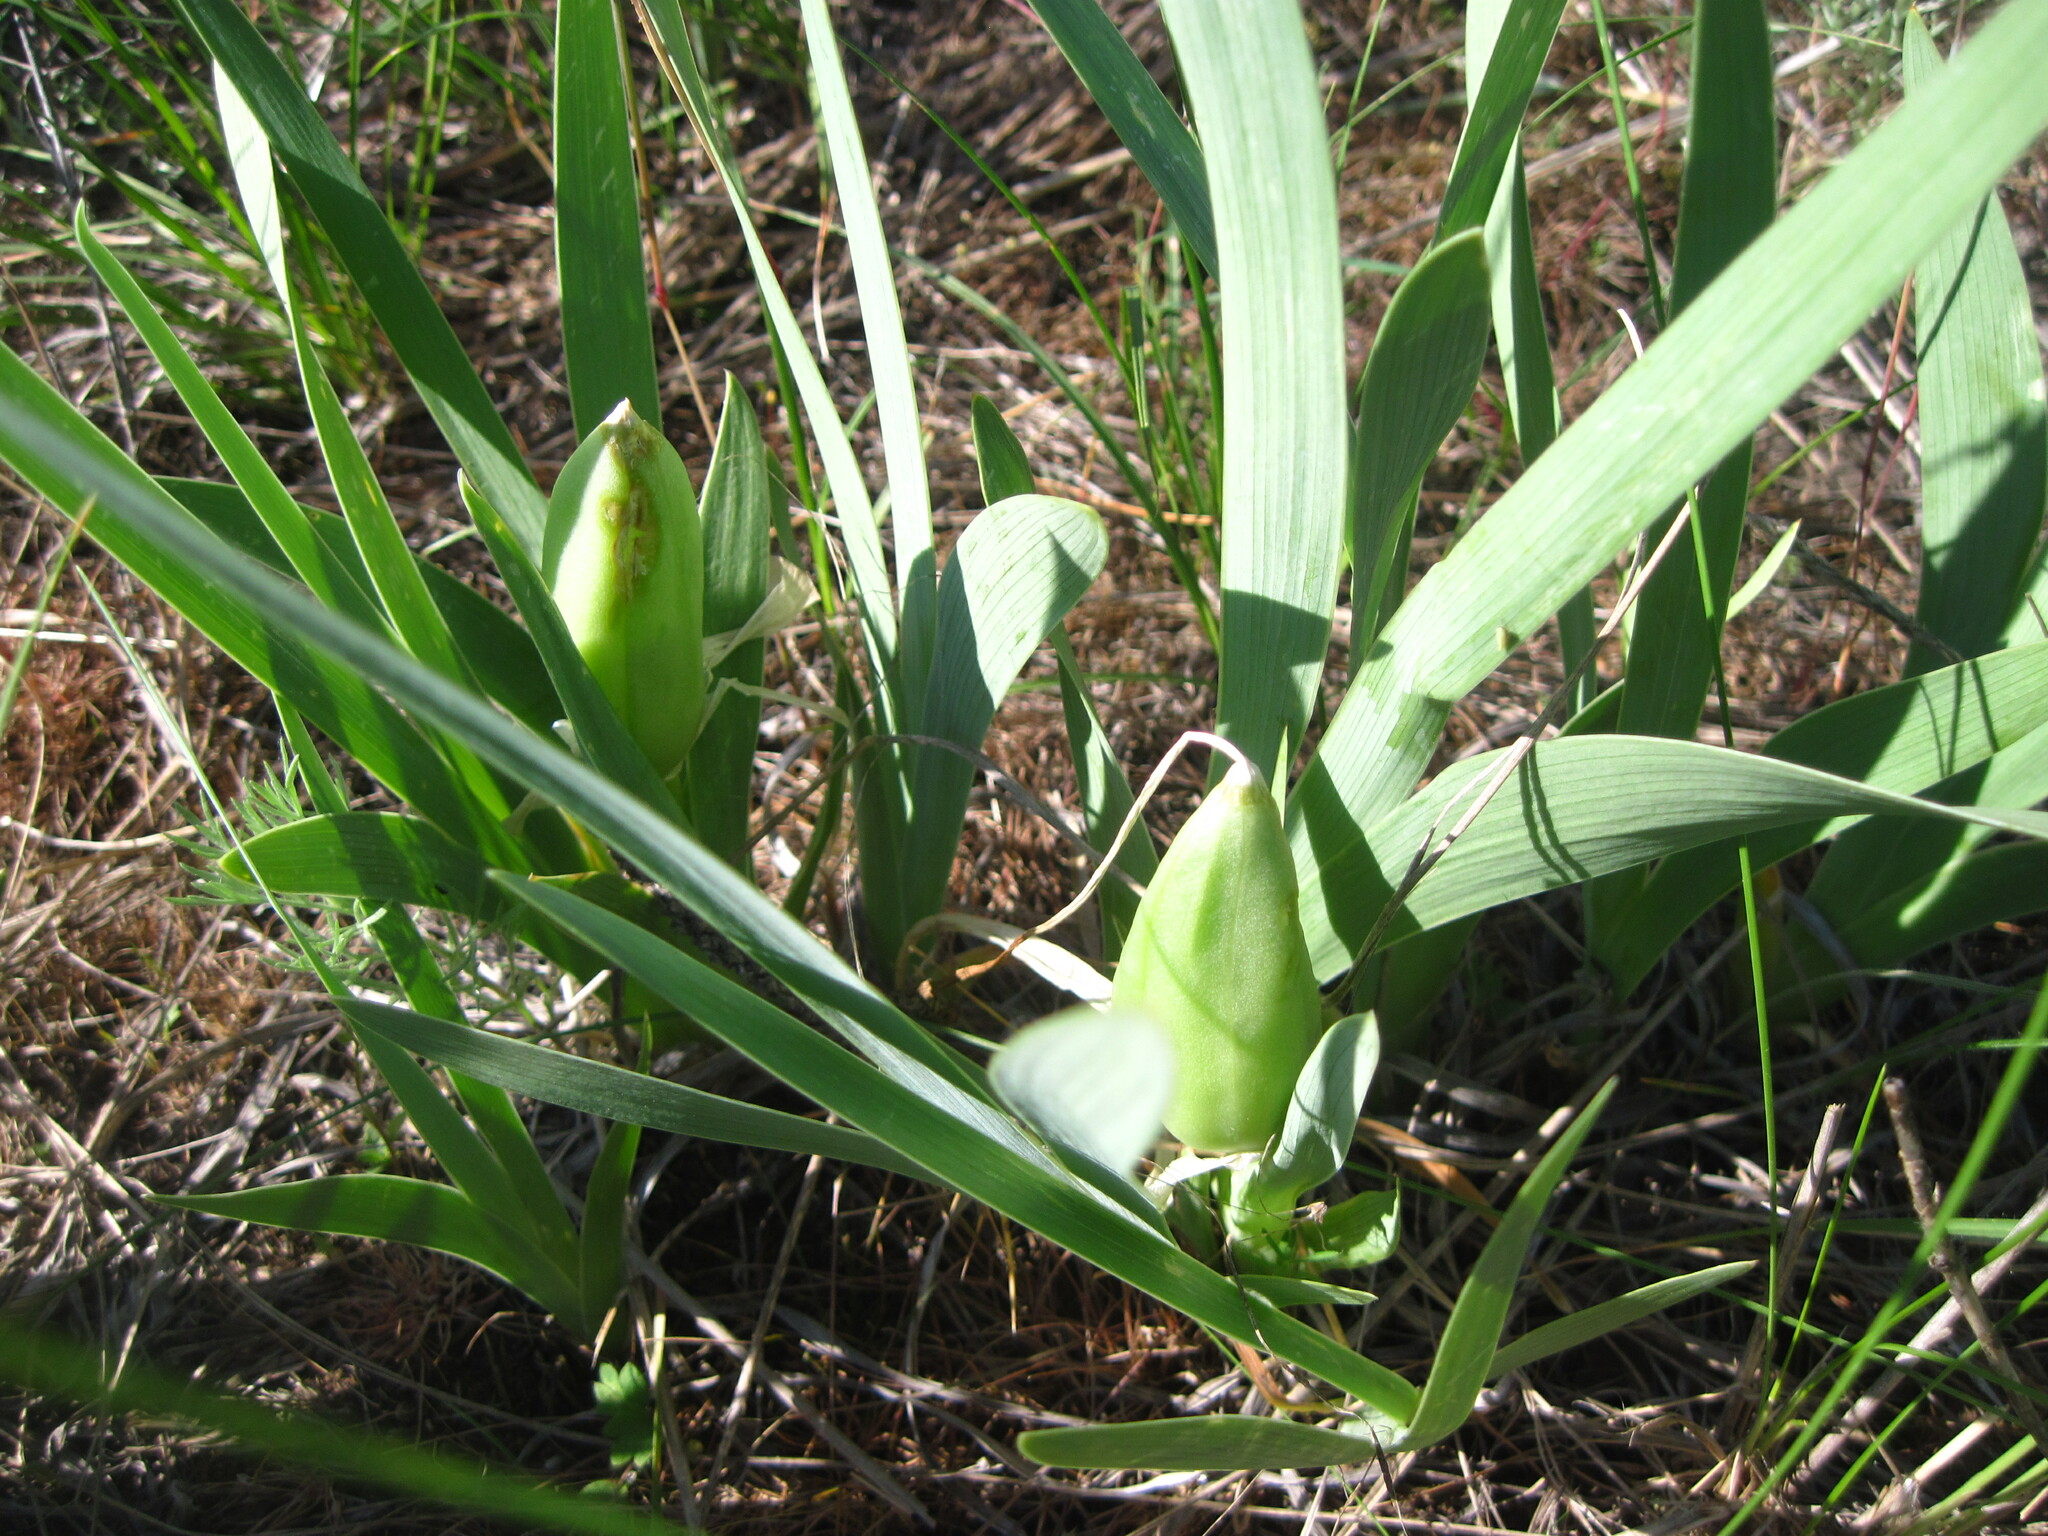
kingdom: Plantae
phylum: Tracheophyta
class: Liliopsida
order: Asparagales
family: Iridaceae
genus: Iris
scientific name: Iris pumila
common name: Dwarf iris
